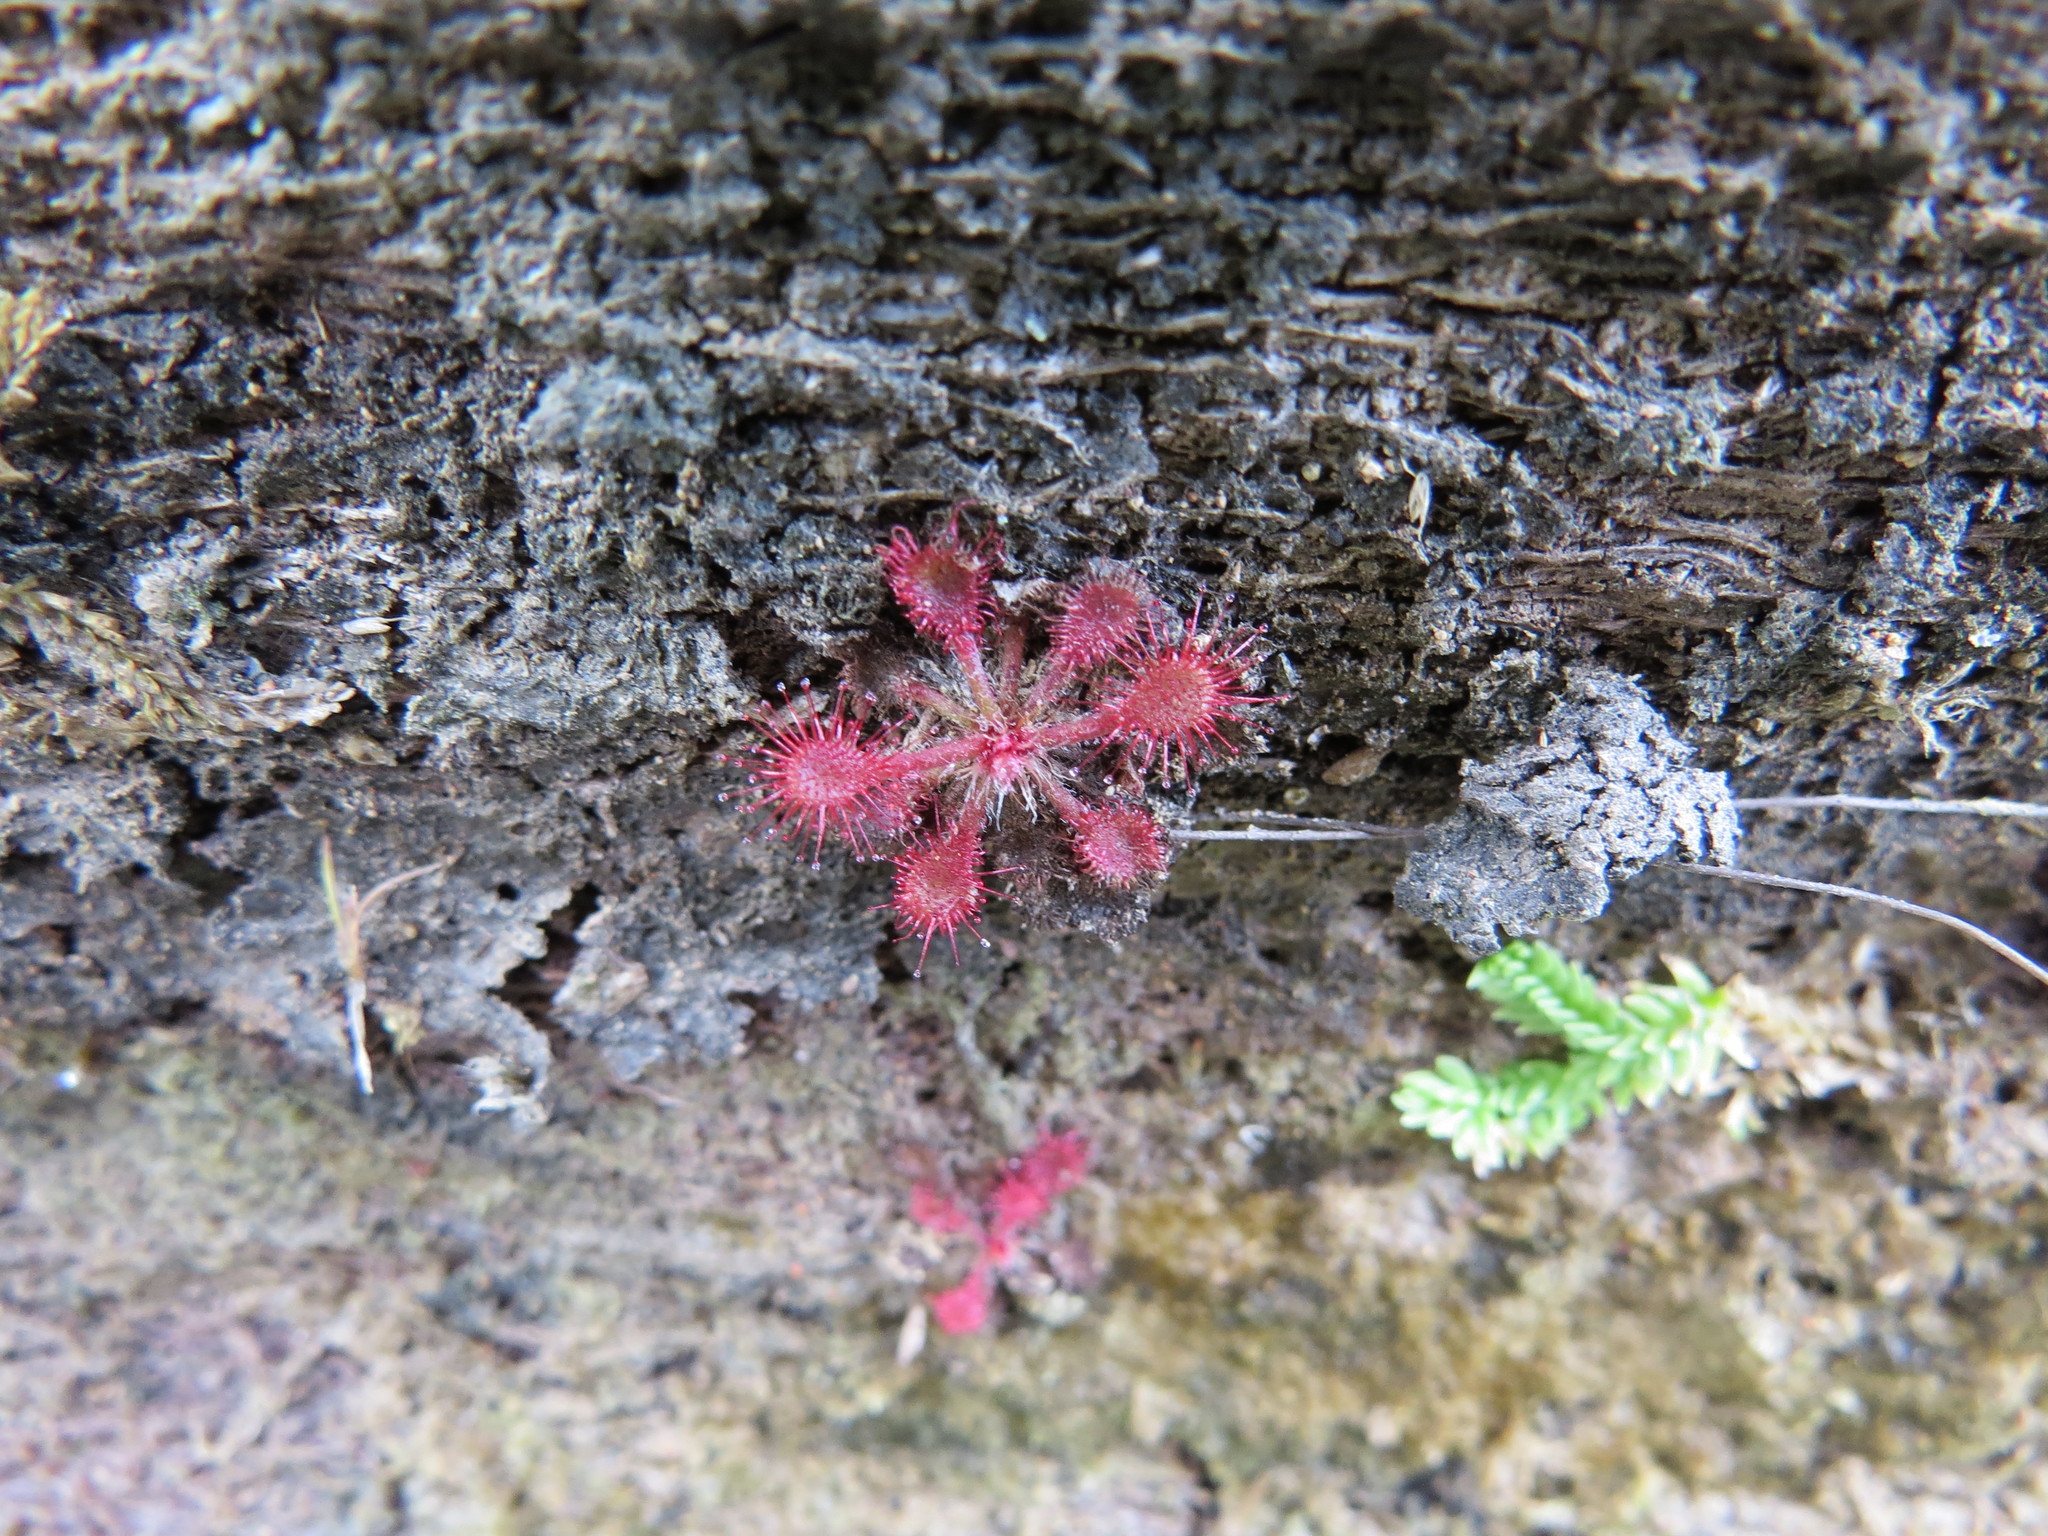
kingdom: Plantae
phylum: Tracheophyta
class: Magnoliopsida
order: Caryophyllales
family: Droseraceae
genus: Drosera
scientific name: Drosera communis
